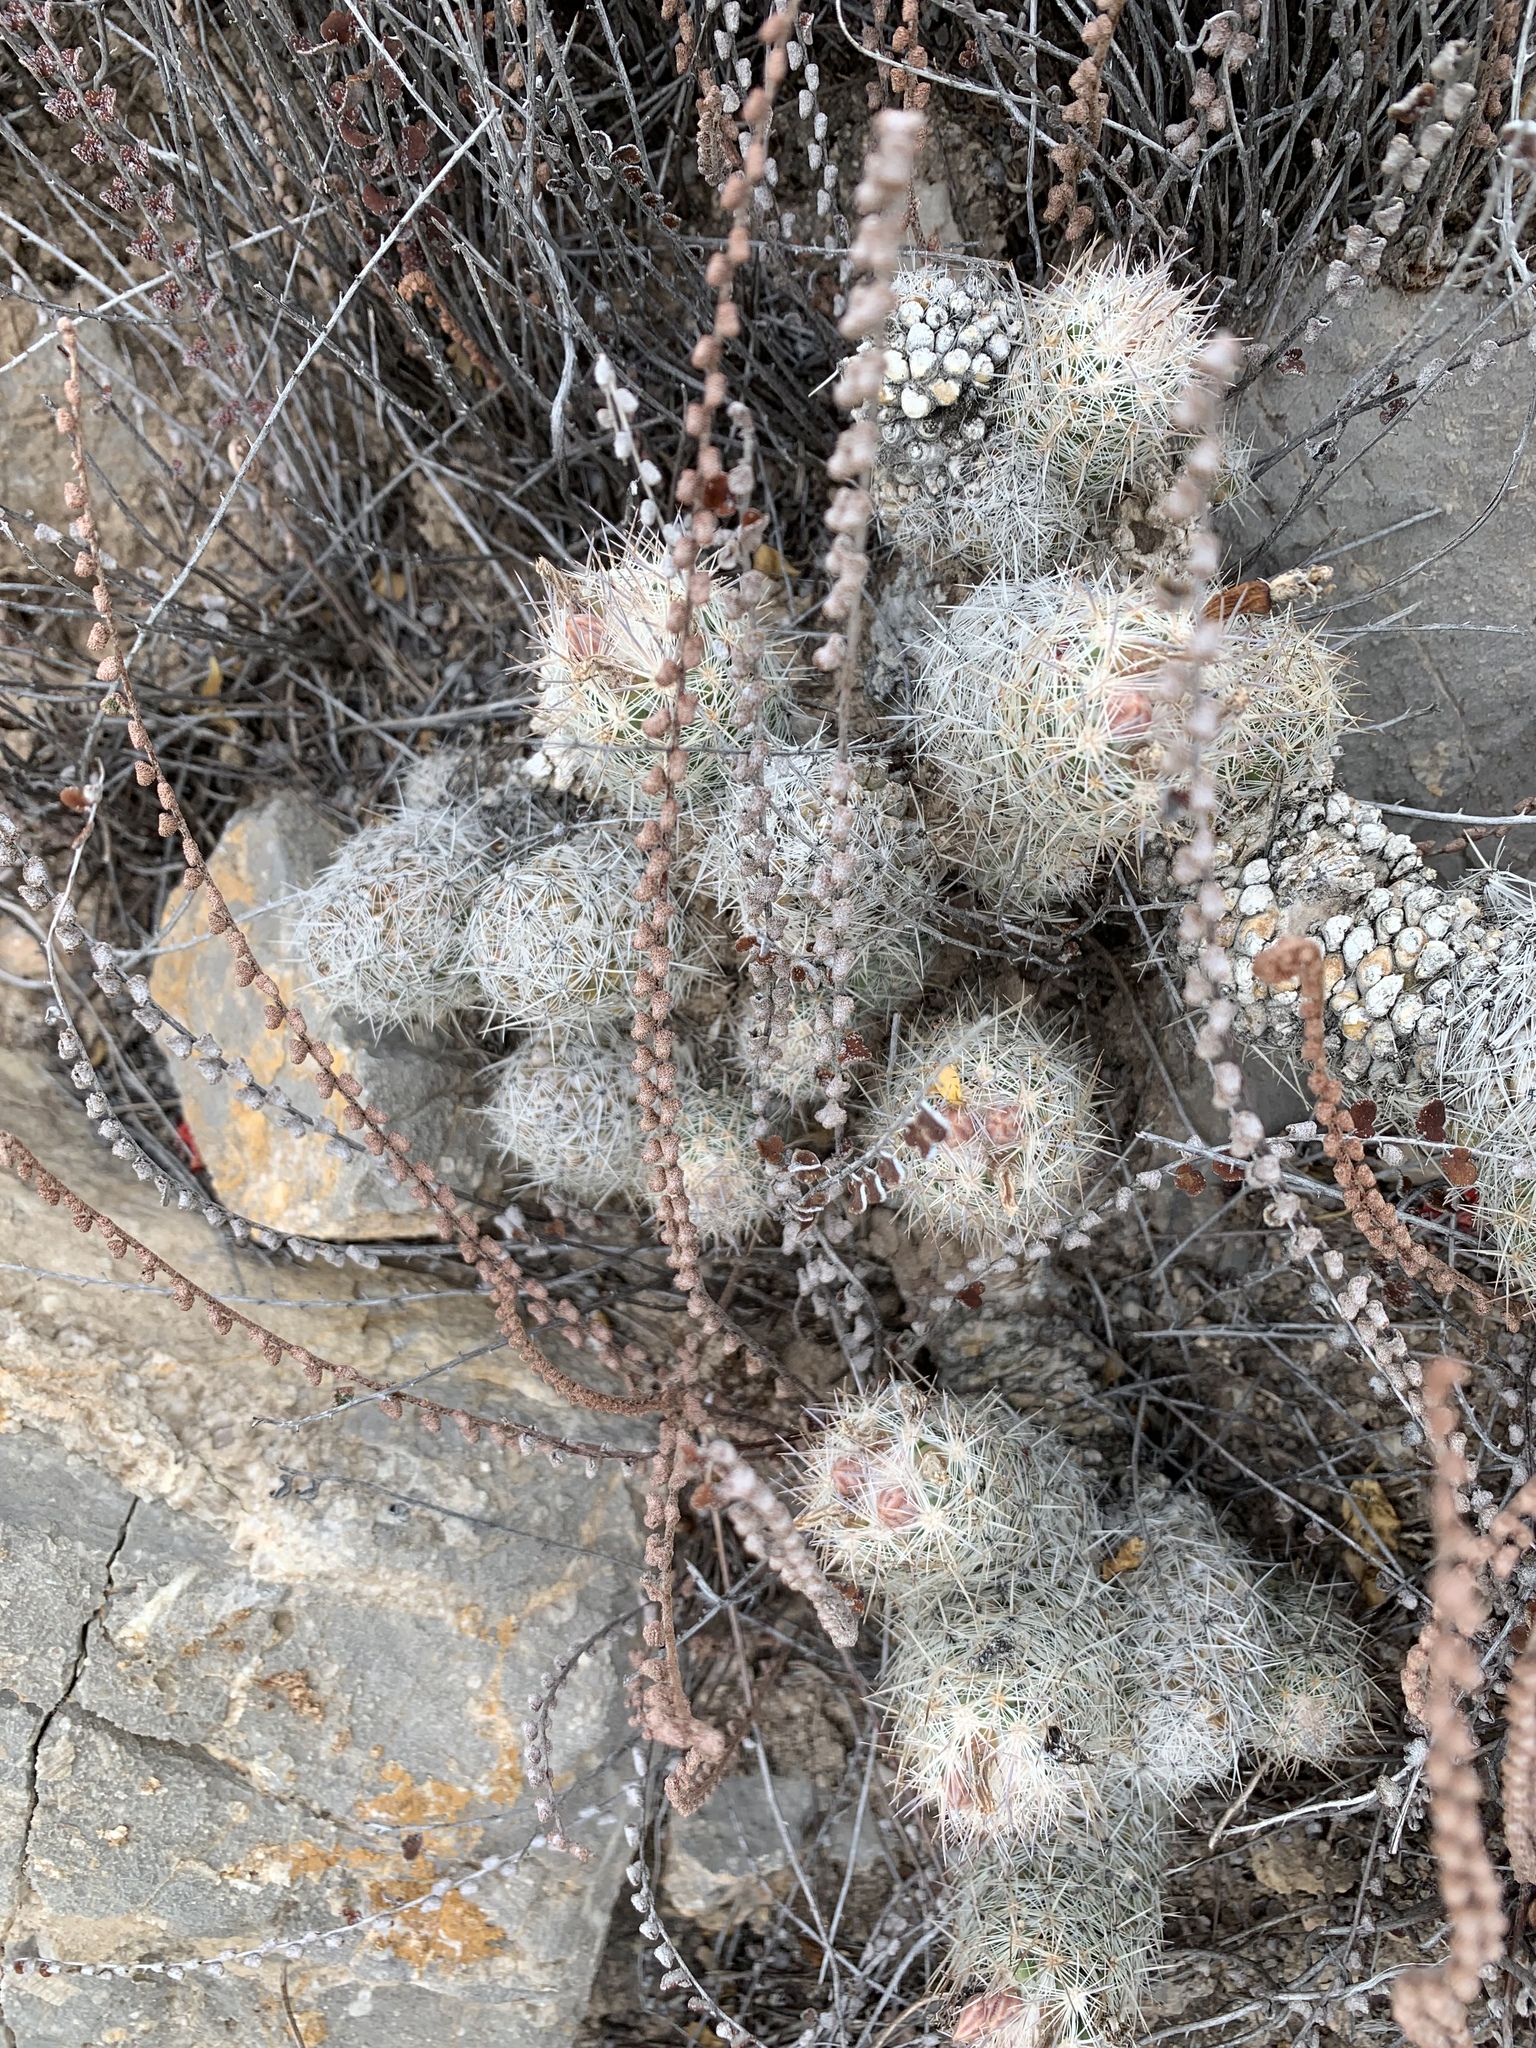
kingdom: Plantae
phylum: Tracheophyta
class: Magnoliopsida
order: Caryophyllales
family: Cactaceae
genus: Pelecyphora
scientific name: Pelecyphora tuberculosa
